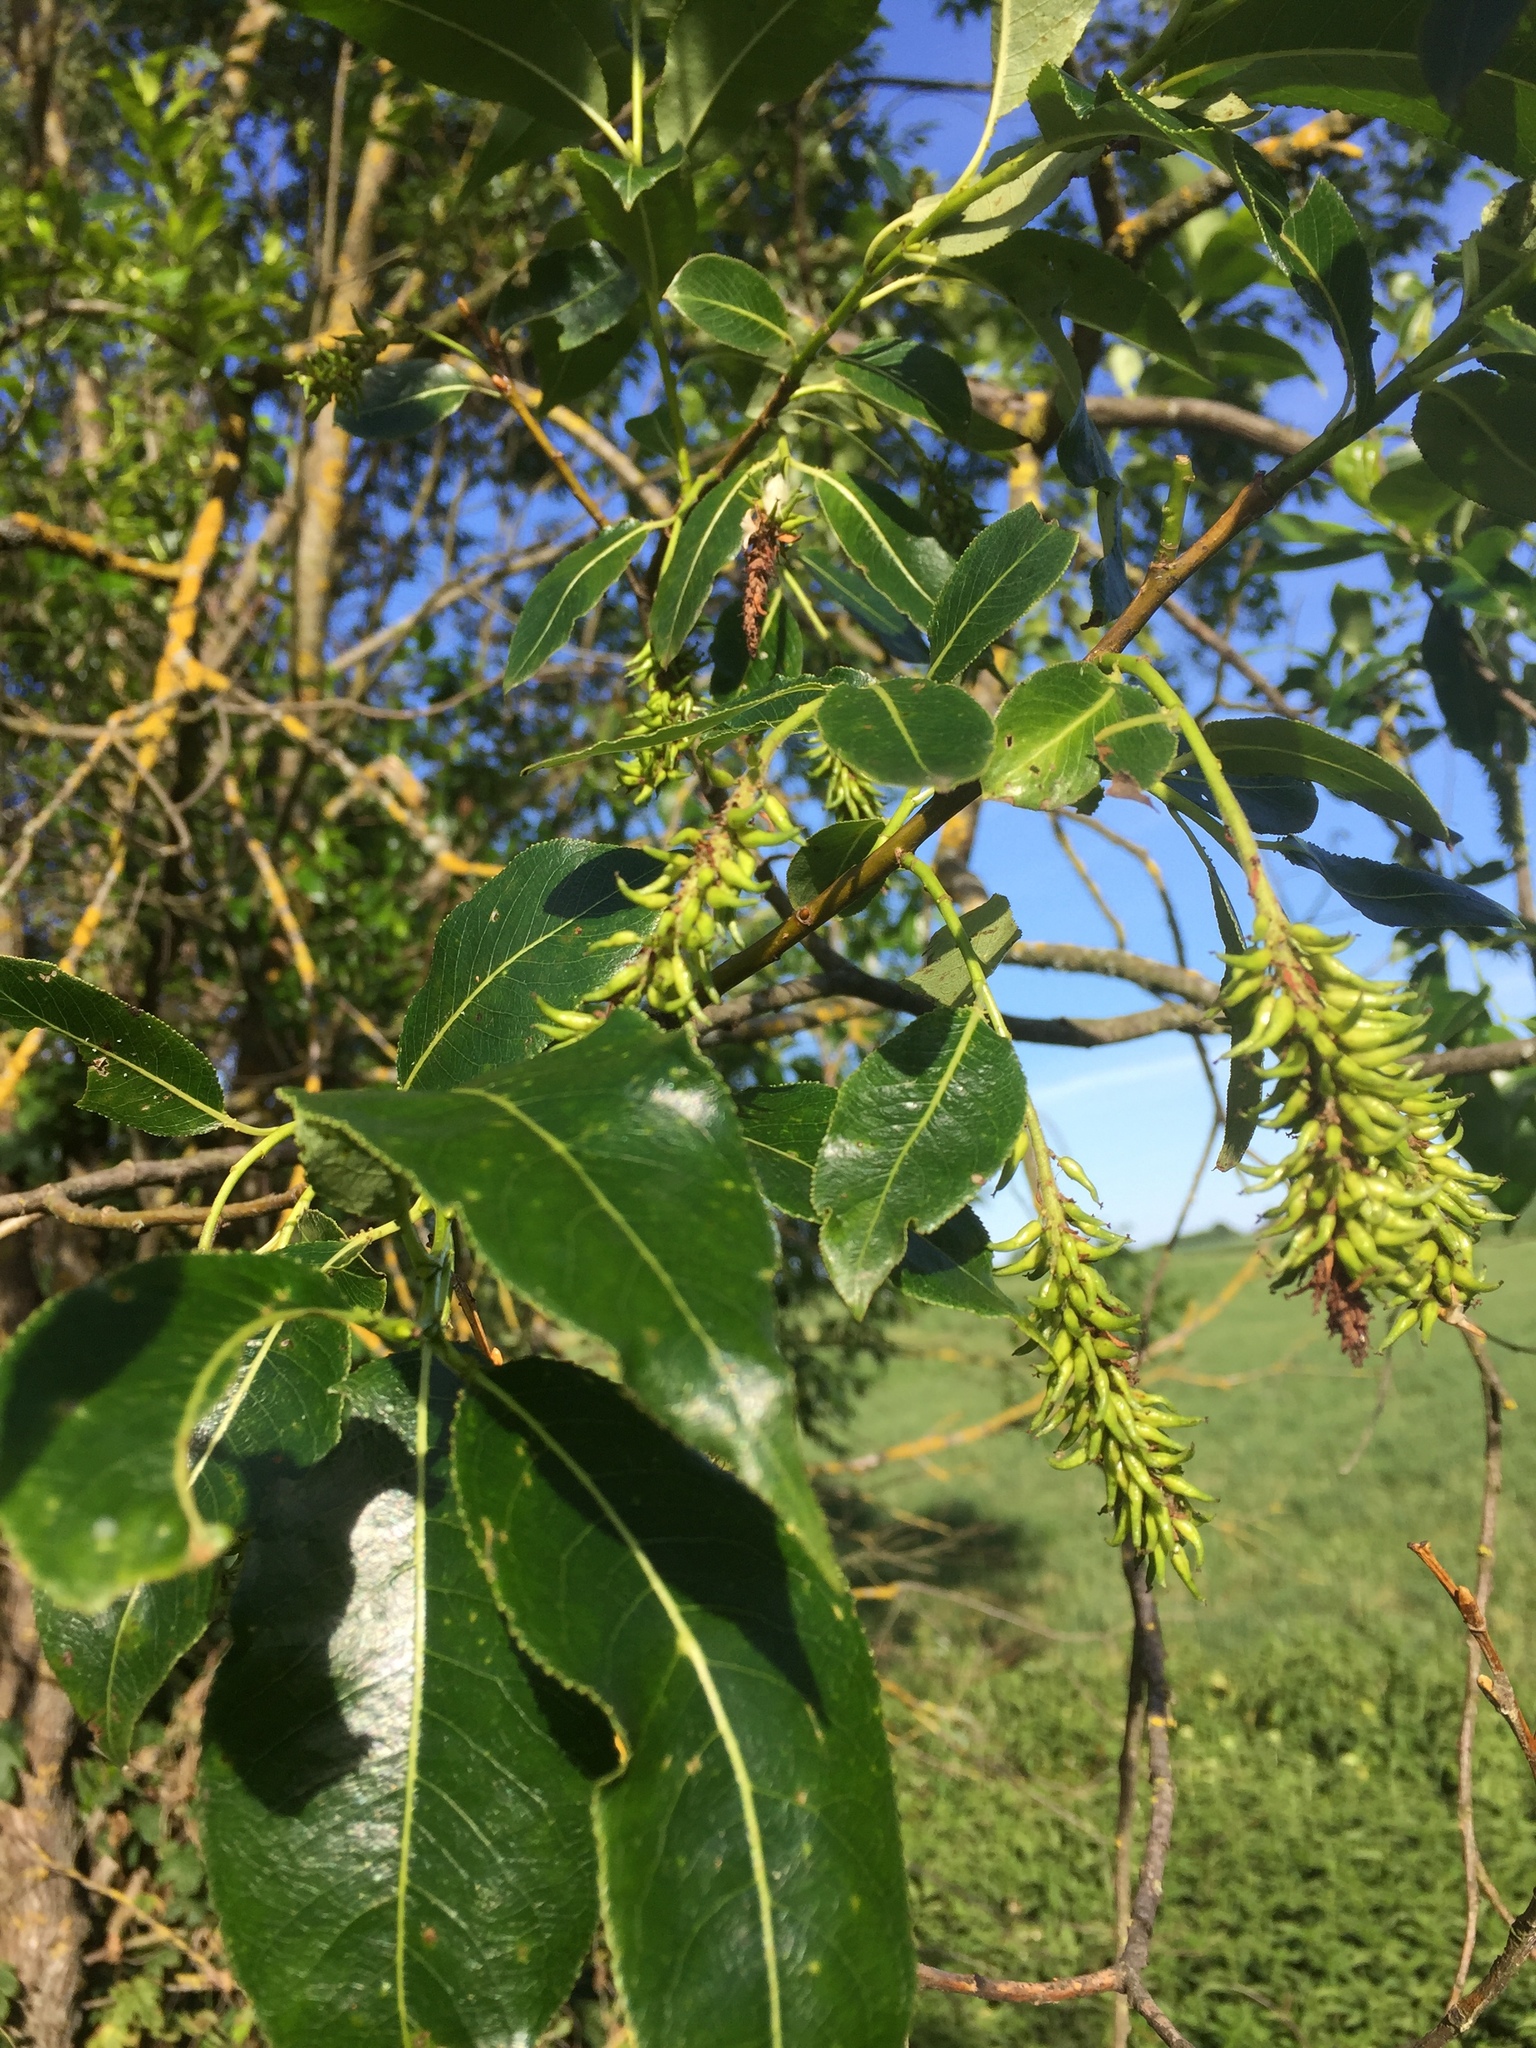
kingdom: Plantae
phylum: Tracheophyta
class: Magnoliopsida
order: Malpighiales
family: Salicaceae
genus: Salix
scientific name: Salix pentandra
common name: Bay willow
